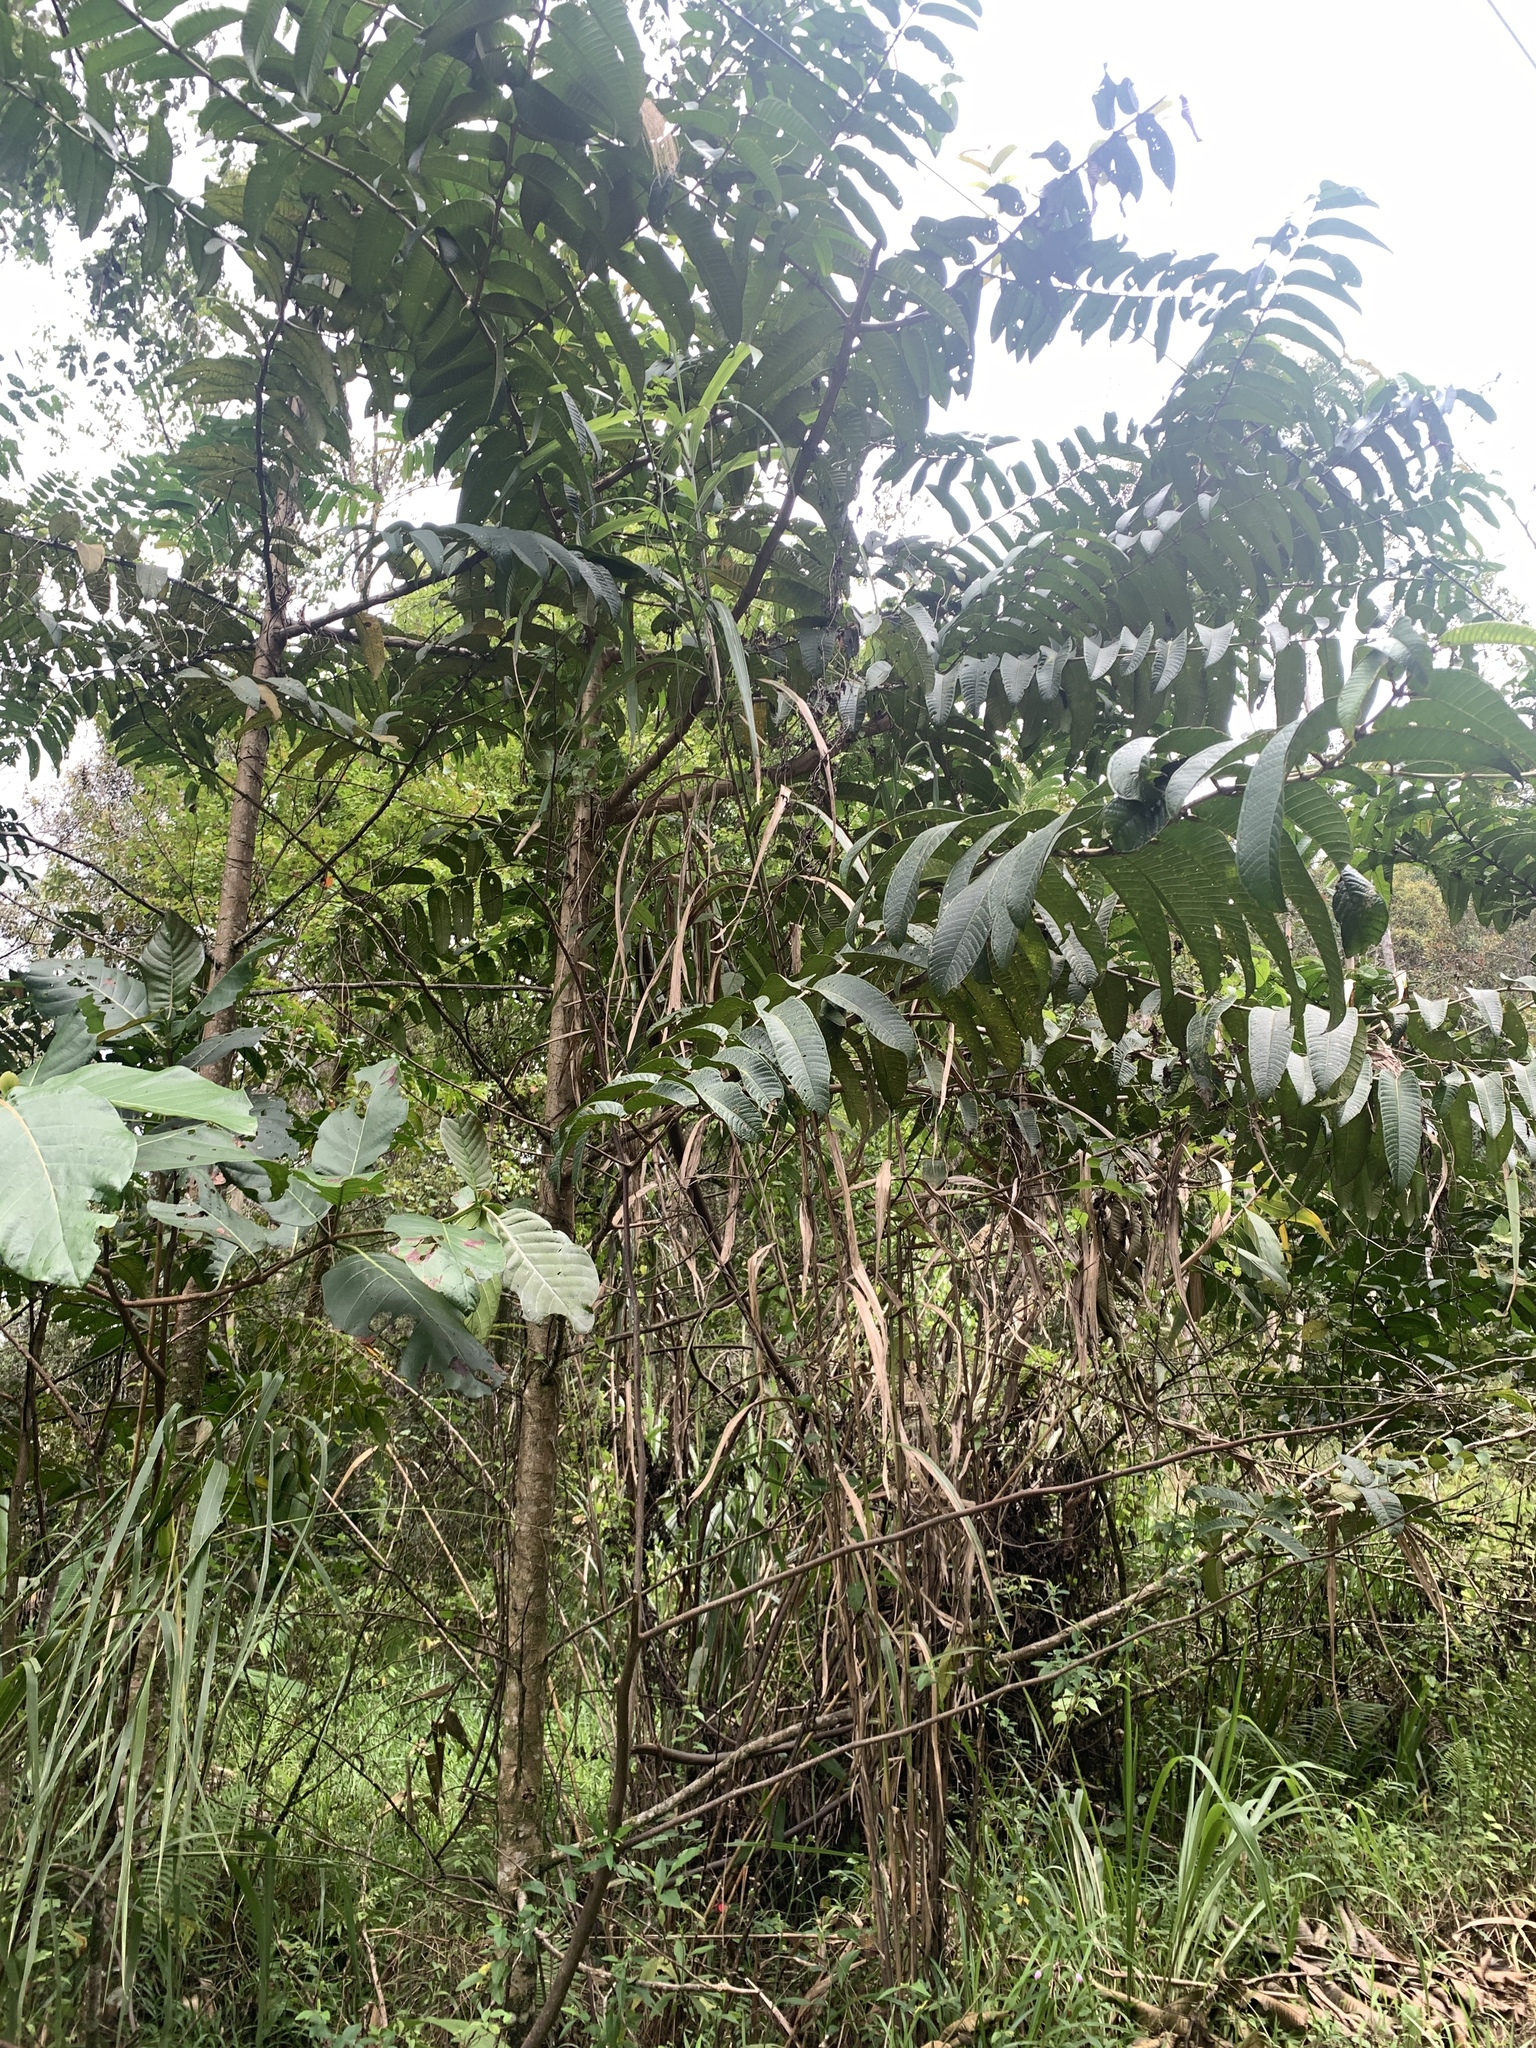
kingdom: Plantae
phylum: Tracheophyta
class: Magnoliopsida
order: Myrtales
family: Lythraceae
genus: Duabanga
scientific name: Duabanga moluccana
